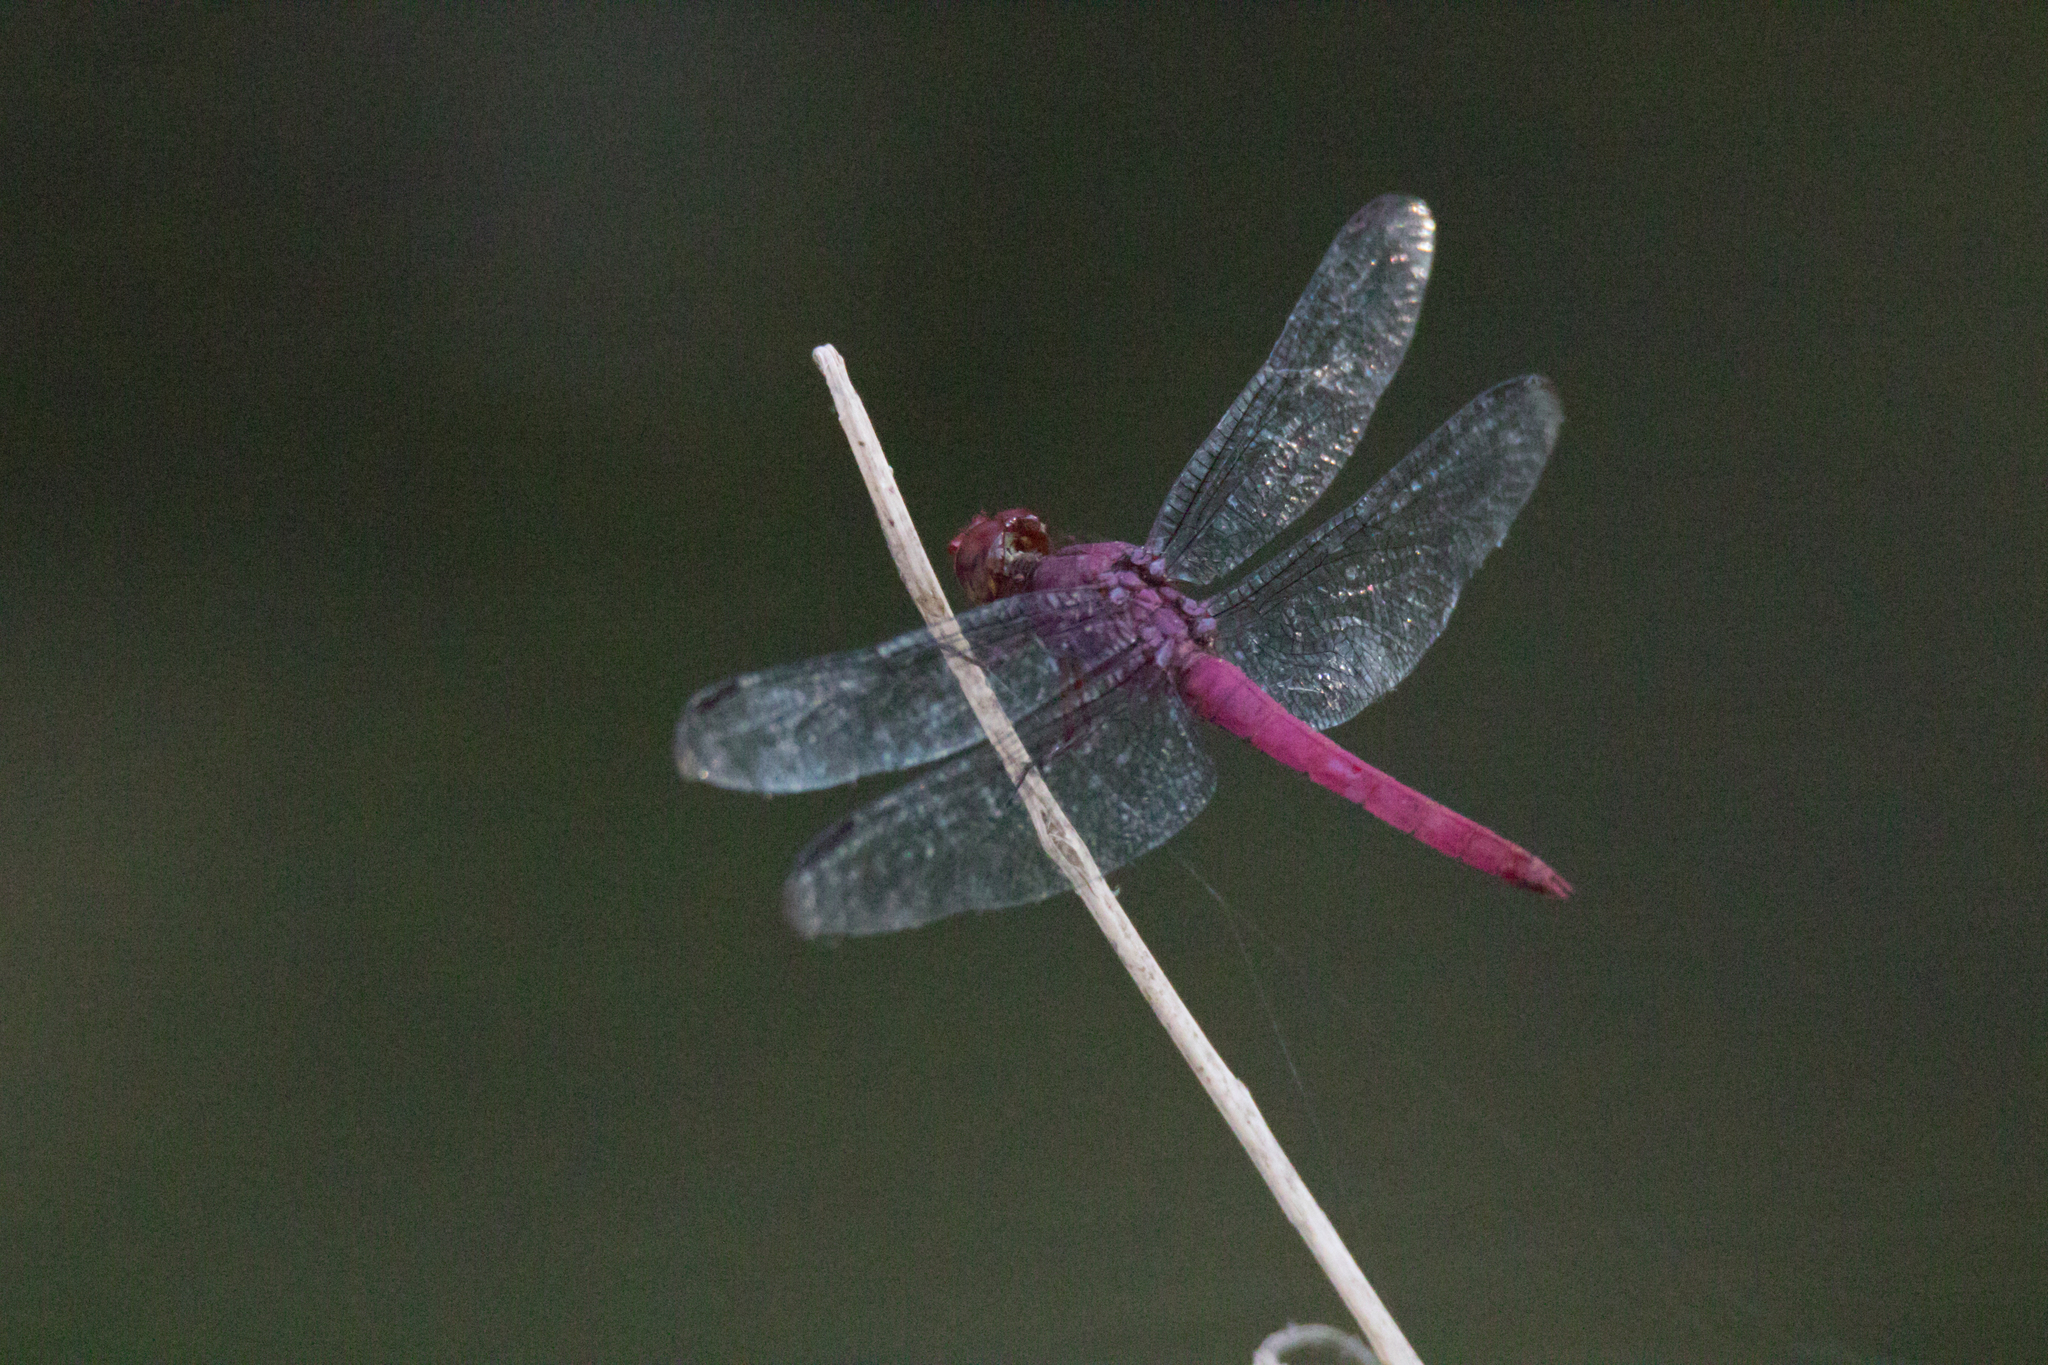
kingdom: Animalia
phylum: Arthropoda
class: Insecta
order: Odonata
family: Libellulidae
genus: Orthemis
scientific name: Orthemis discolor
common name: Carmine skimmer
